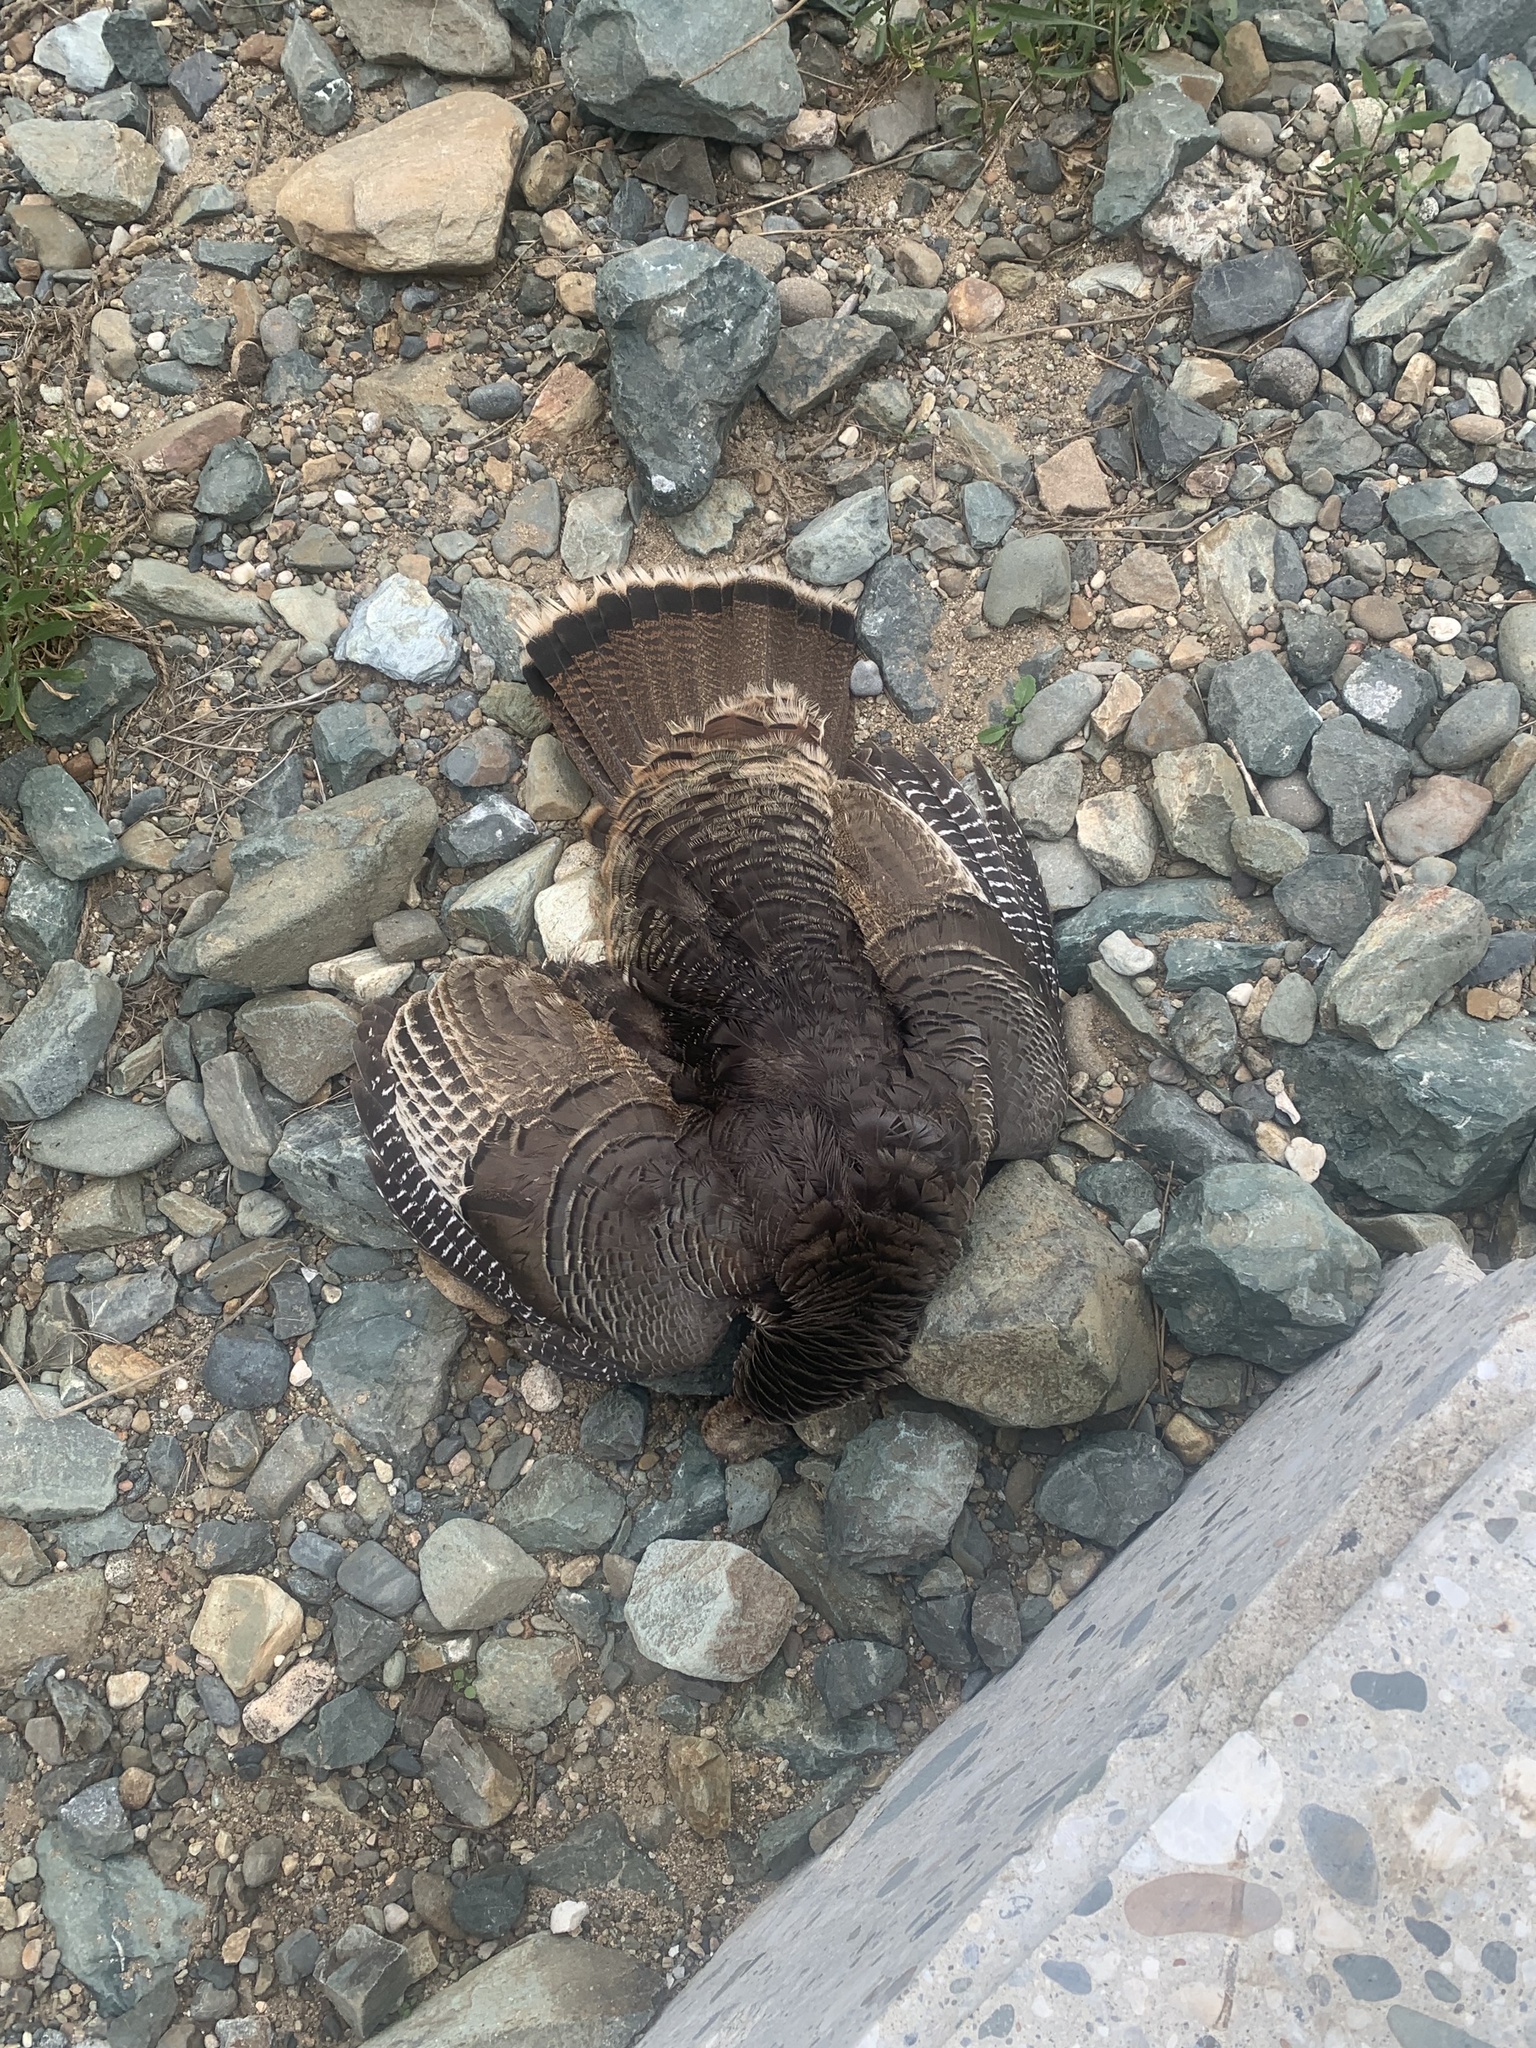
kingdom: Animalia
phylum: Chordata
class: Aves
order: Galliformes
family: Phasianidae
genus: Meleagris
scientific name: Meleagris gallopavo
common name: Wild turkey
